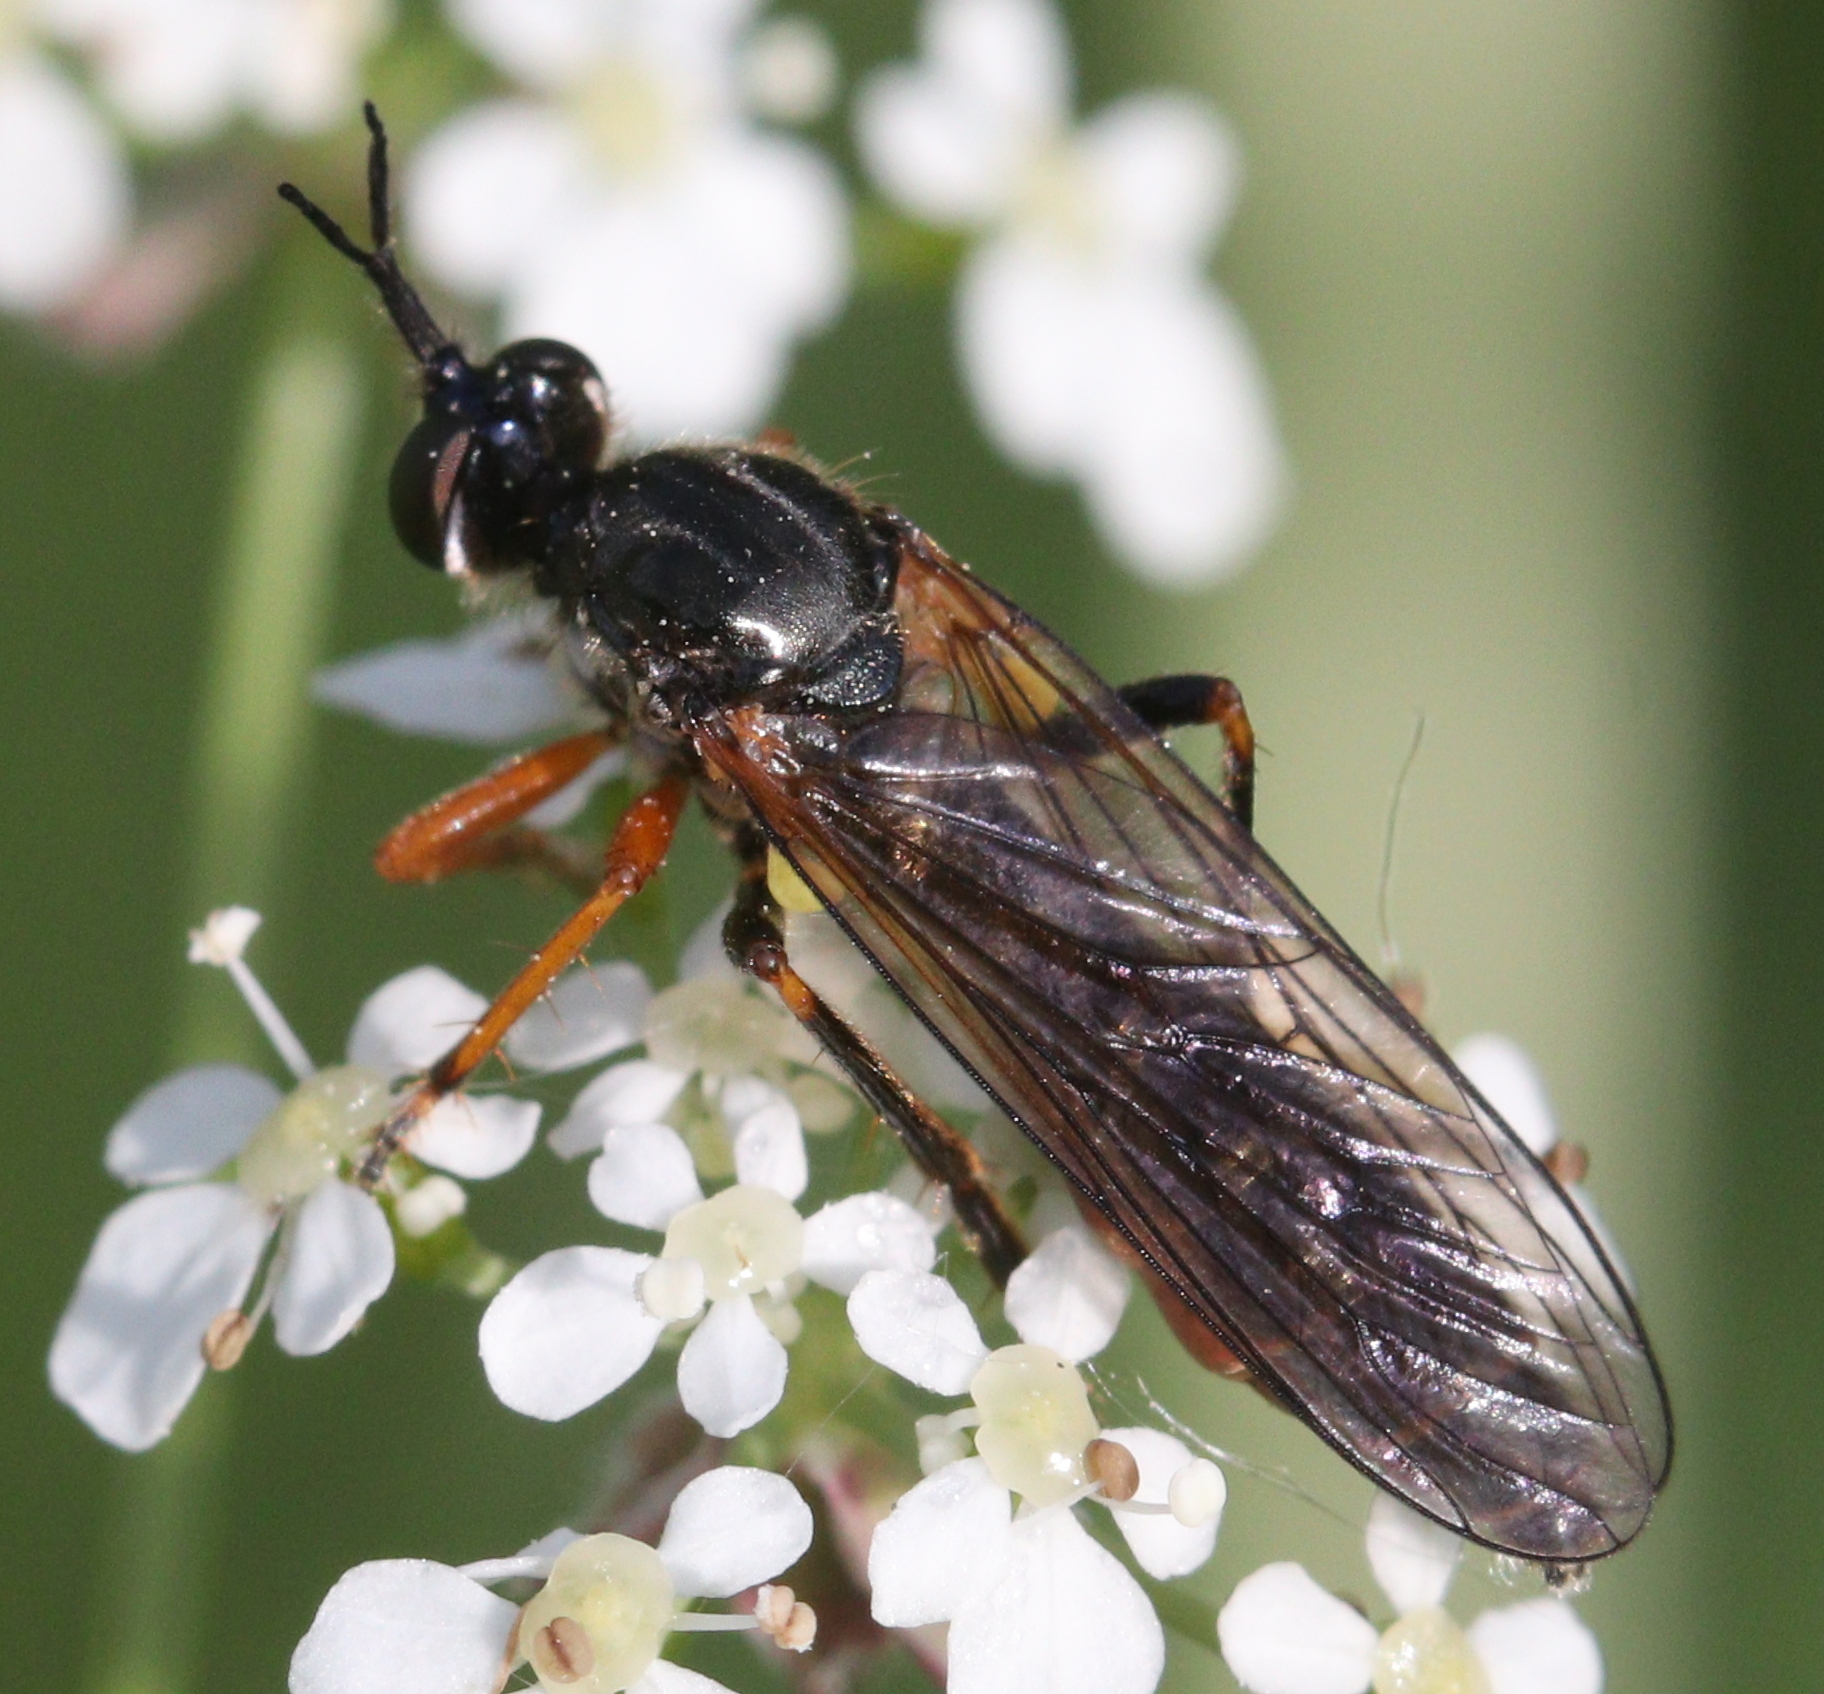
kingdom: Animalia
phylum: Arthropoda
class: Insecta
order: Diptera
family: Asilidae
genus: Dioctria
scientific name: Dioctria rufipes
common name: Common red-legged robberfly
